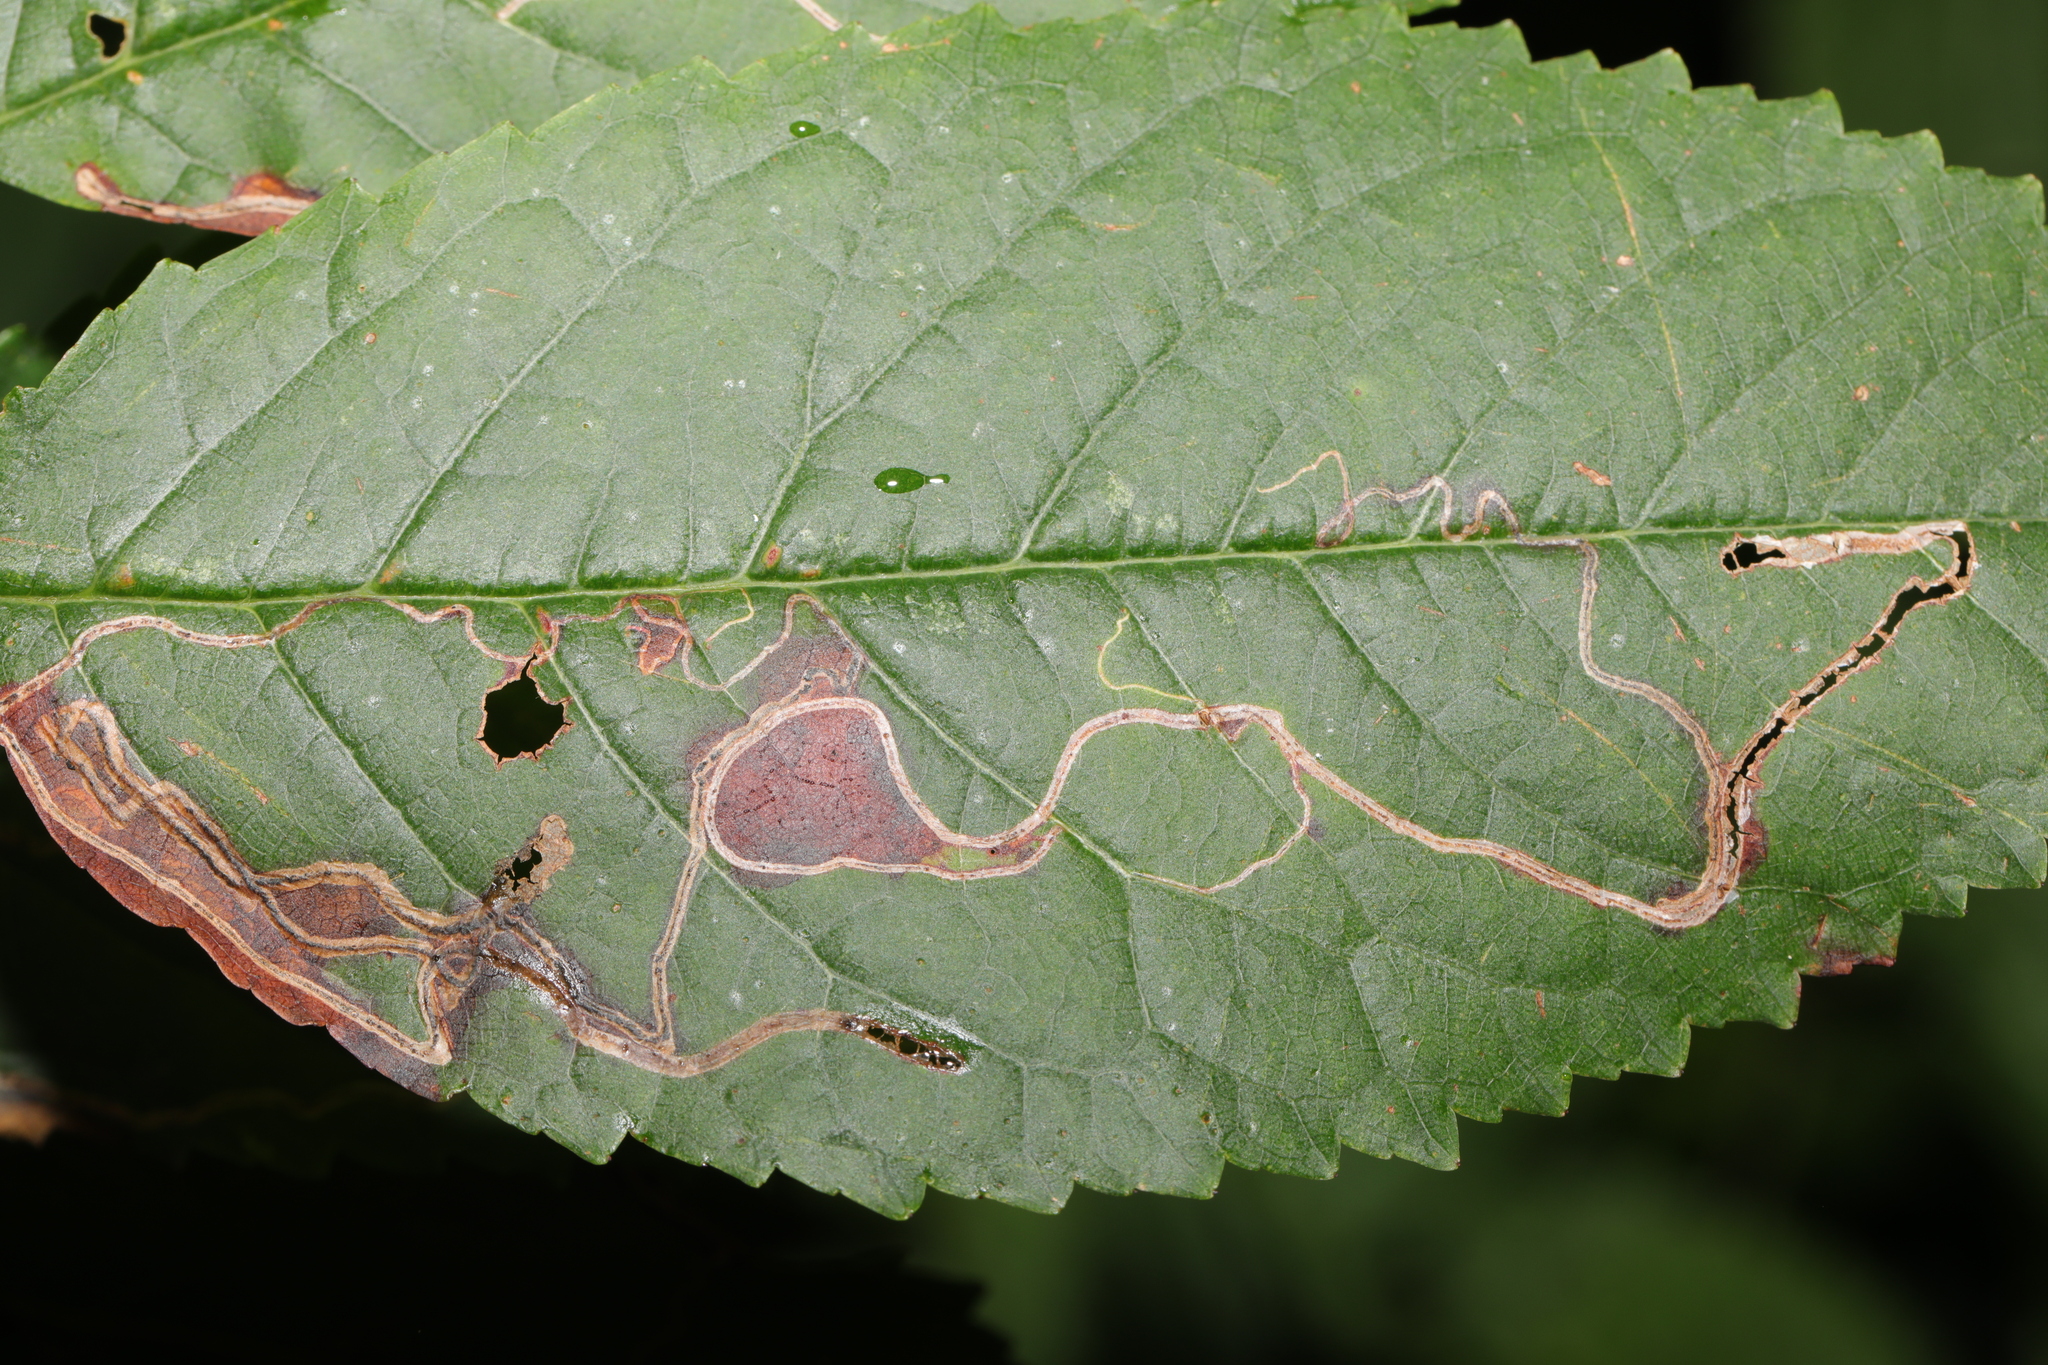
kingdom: Animalia
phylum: Arthropoda
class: Insecta
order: Lepidoptera
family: Lyonetiidae
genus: Lyonetia
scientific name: Lyonetia clerkella
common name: Apple leaf miner
